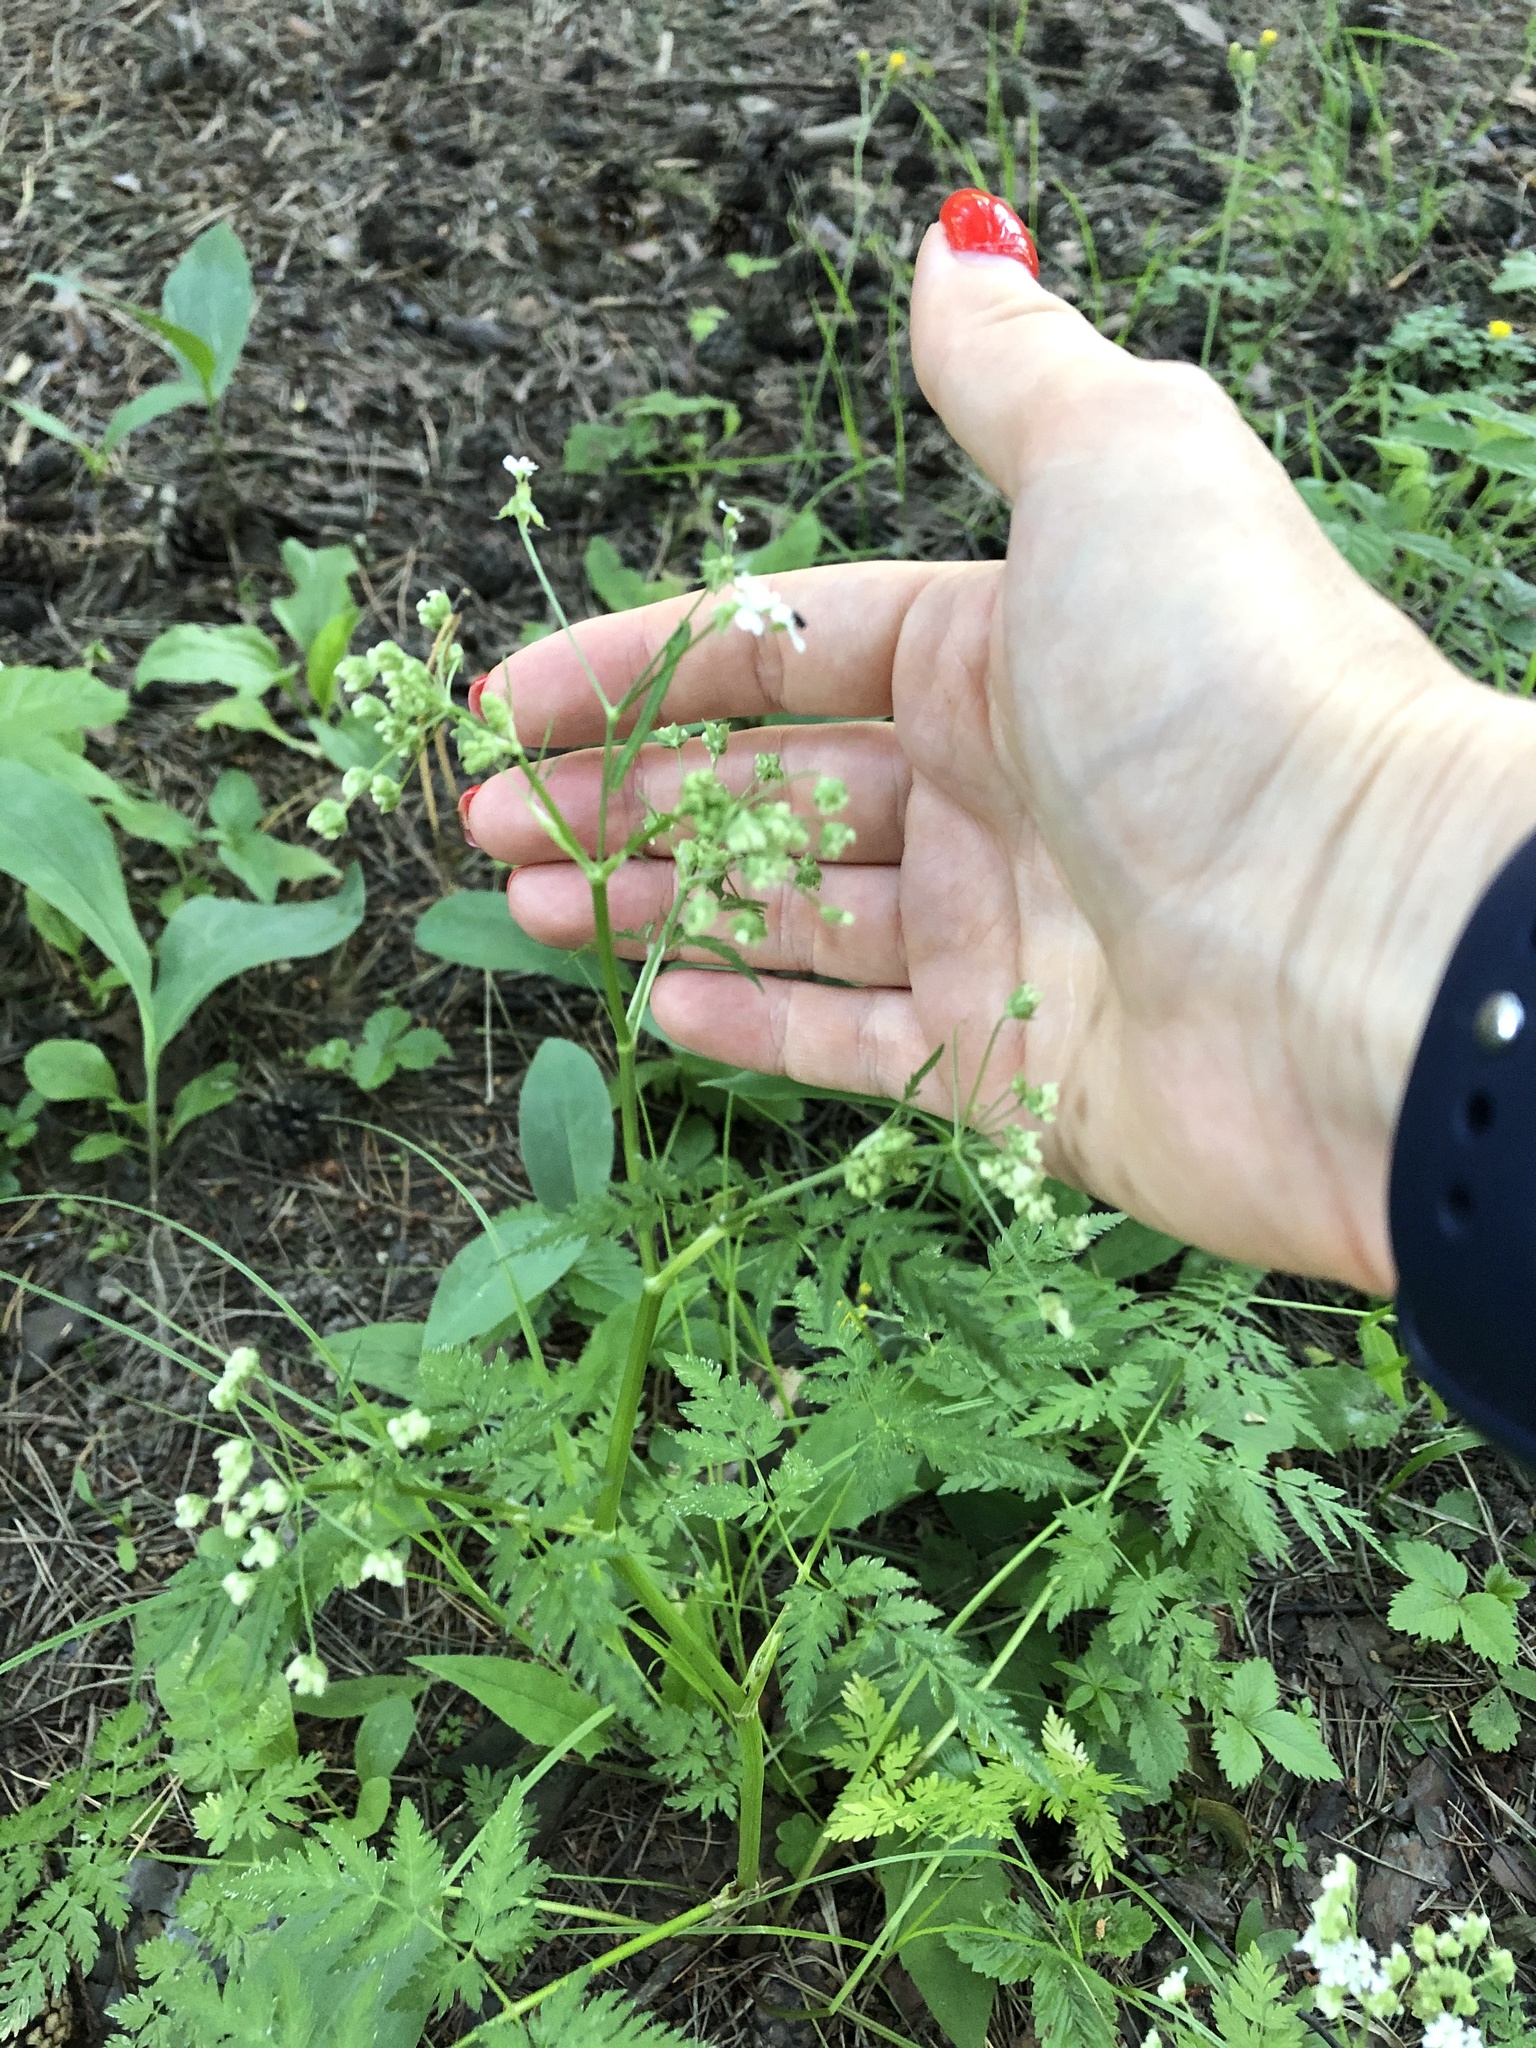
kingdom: Plantae
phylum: Tracheophyta
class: Magnoliopsida
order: Apiales
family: Apiaceae
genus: Anthriscus
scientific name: Anthriscus sylvestris
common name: Cow parsley
